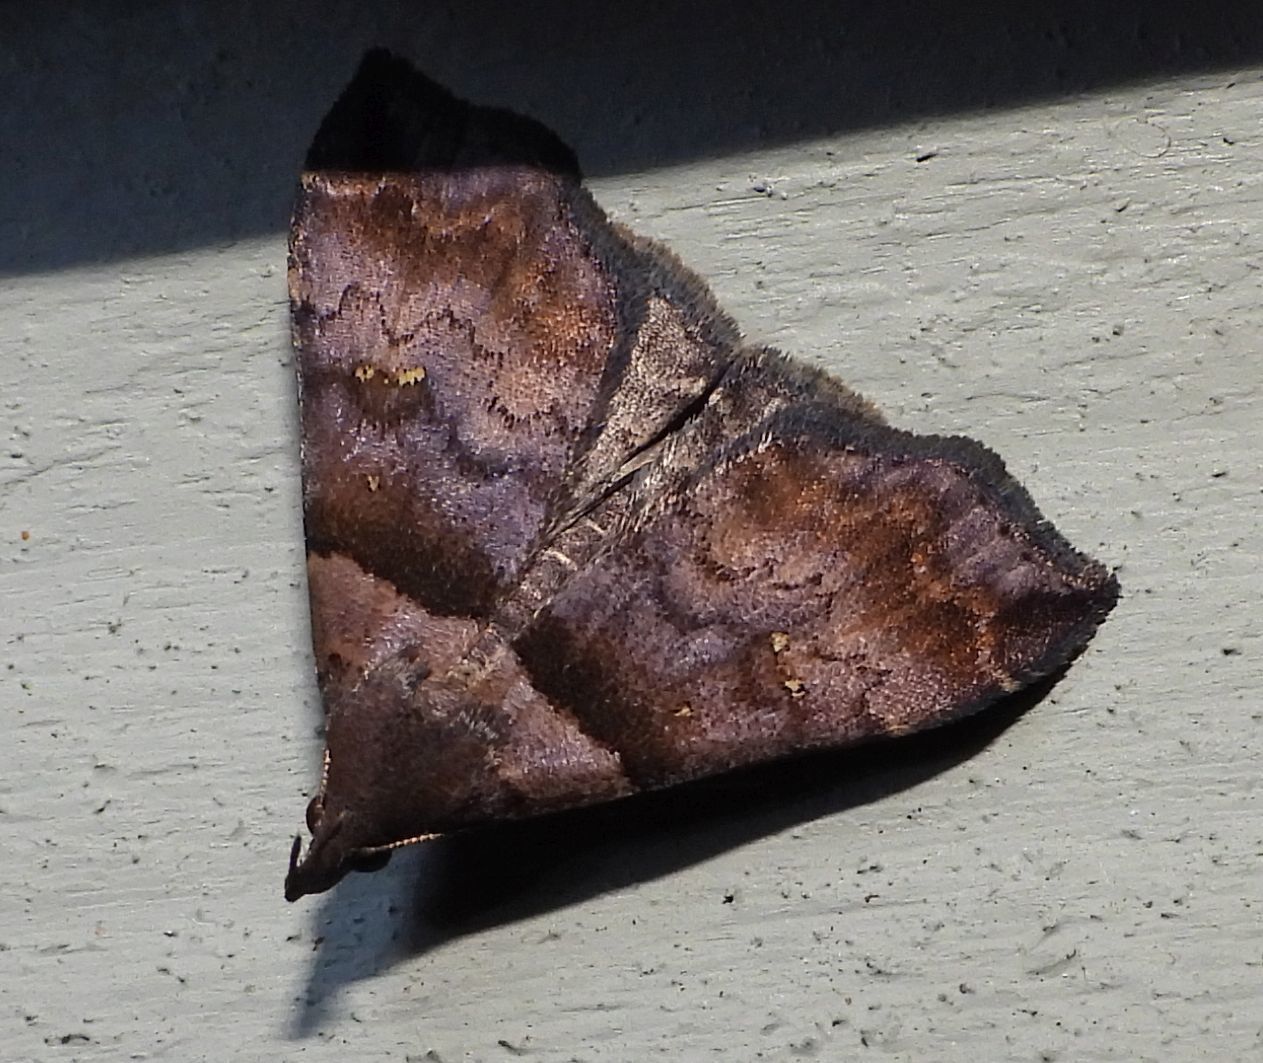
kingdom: Animalia
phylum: Arthropoda
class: Insecta
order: Lepidoptera
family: Erebidae
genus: Lascoria
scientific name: Lascoria ambigualis
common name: Ambiguous moth
